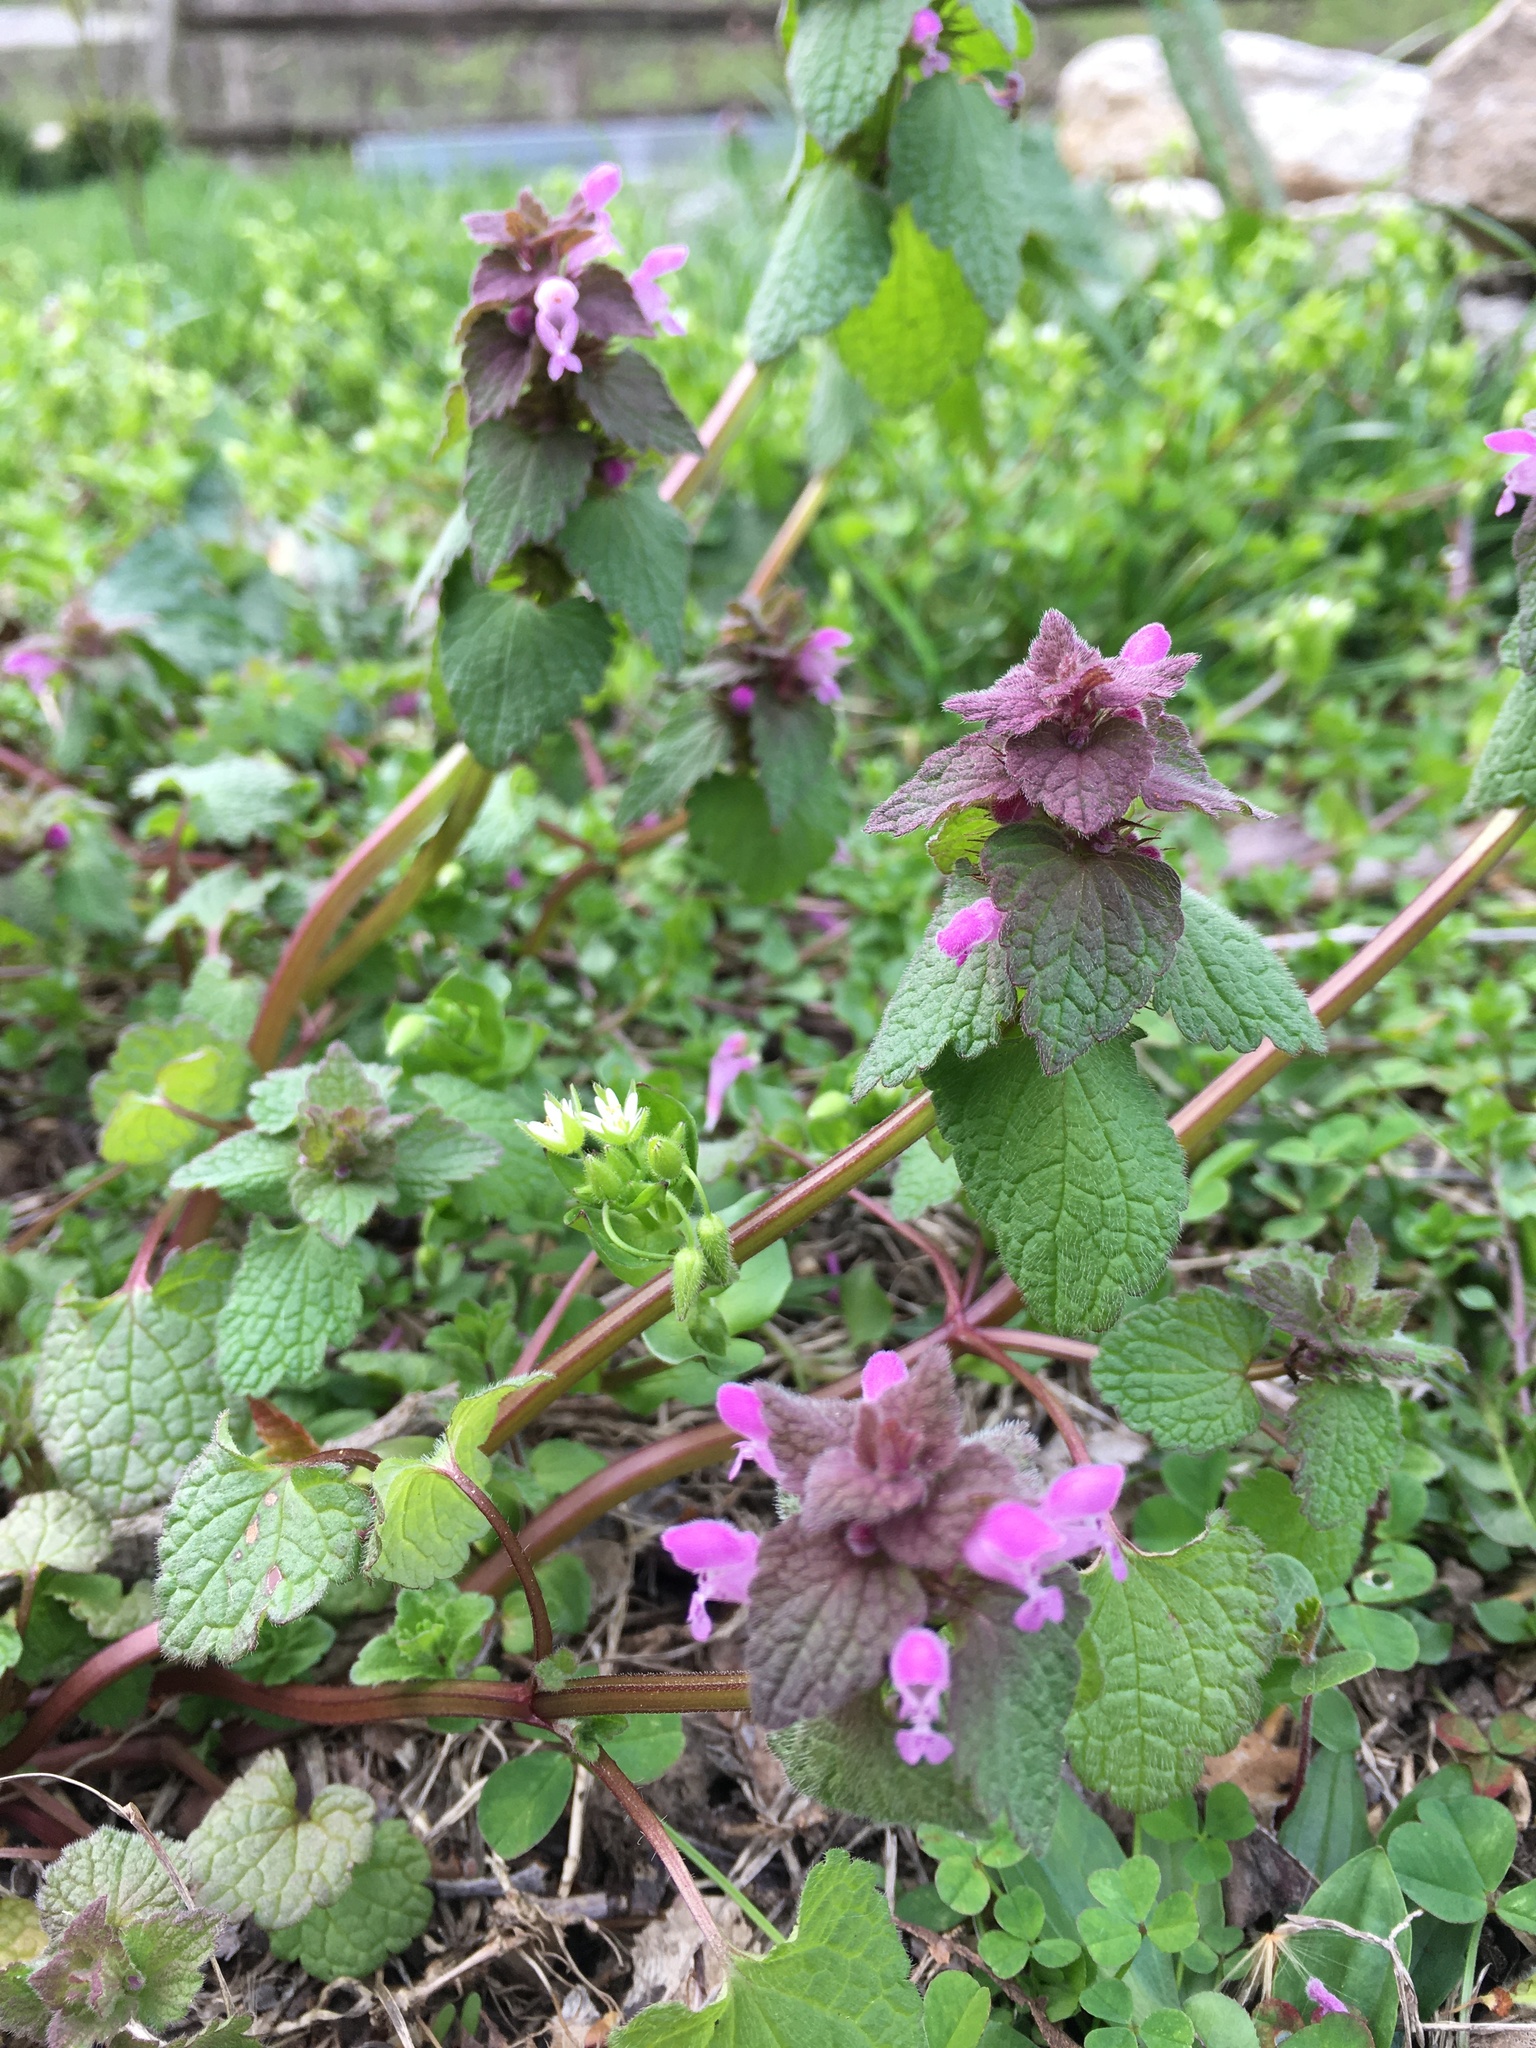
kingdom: Plantae
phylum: Tracheophyta
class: Magnoliopsida
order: Lamiales
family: Lamiaceae
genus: Lamium
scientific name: Lamium purpureum
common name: Red dead-nettle
